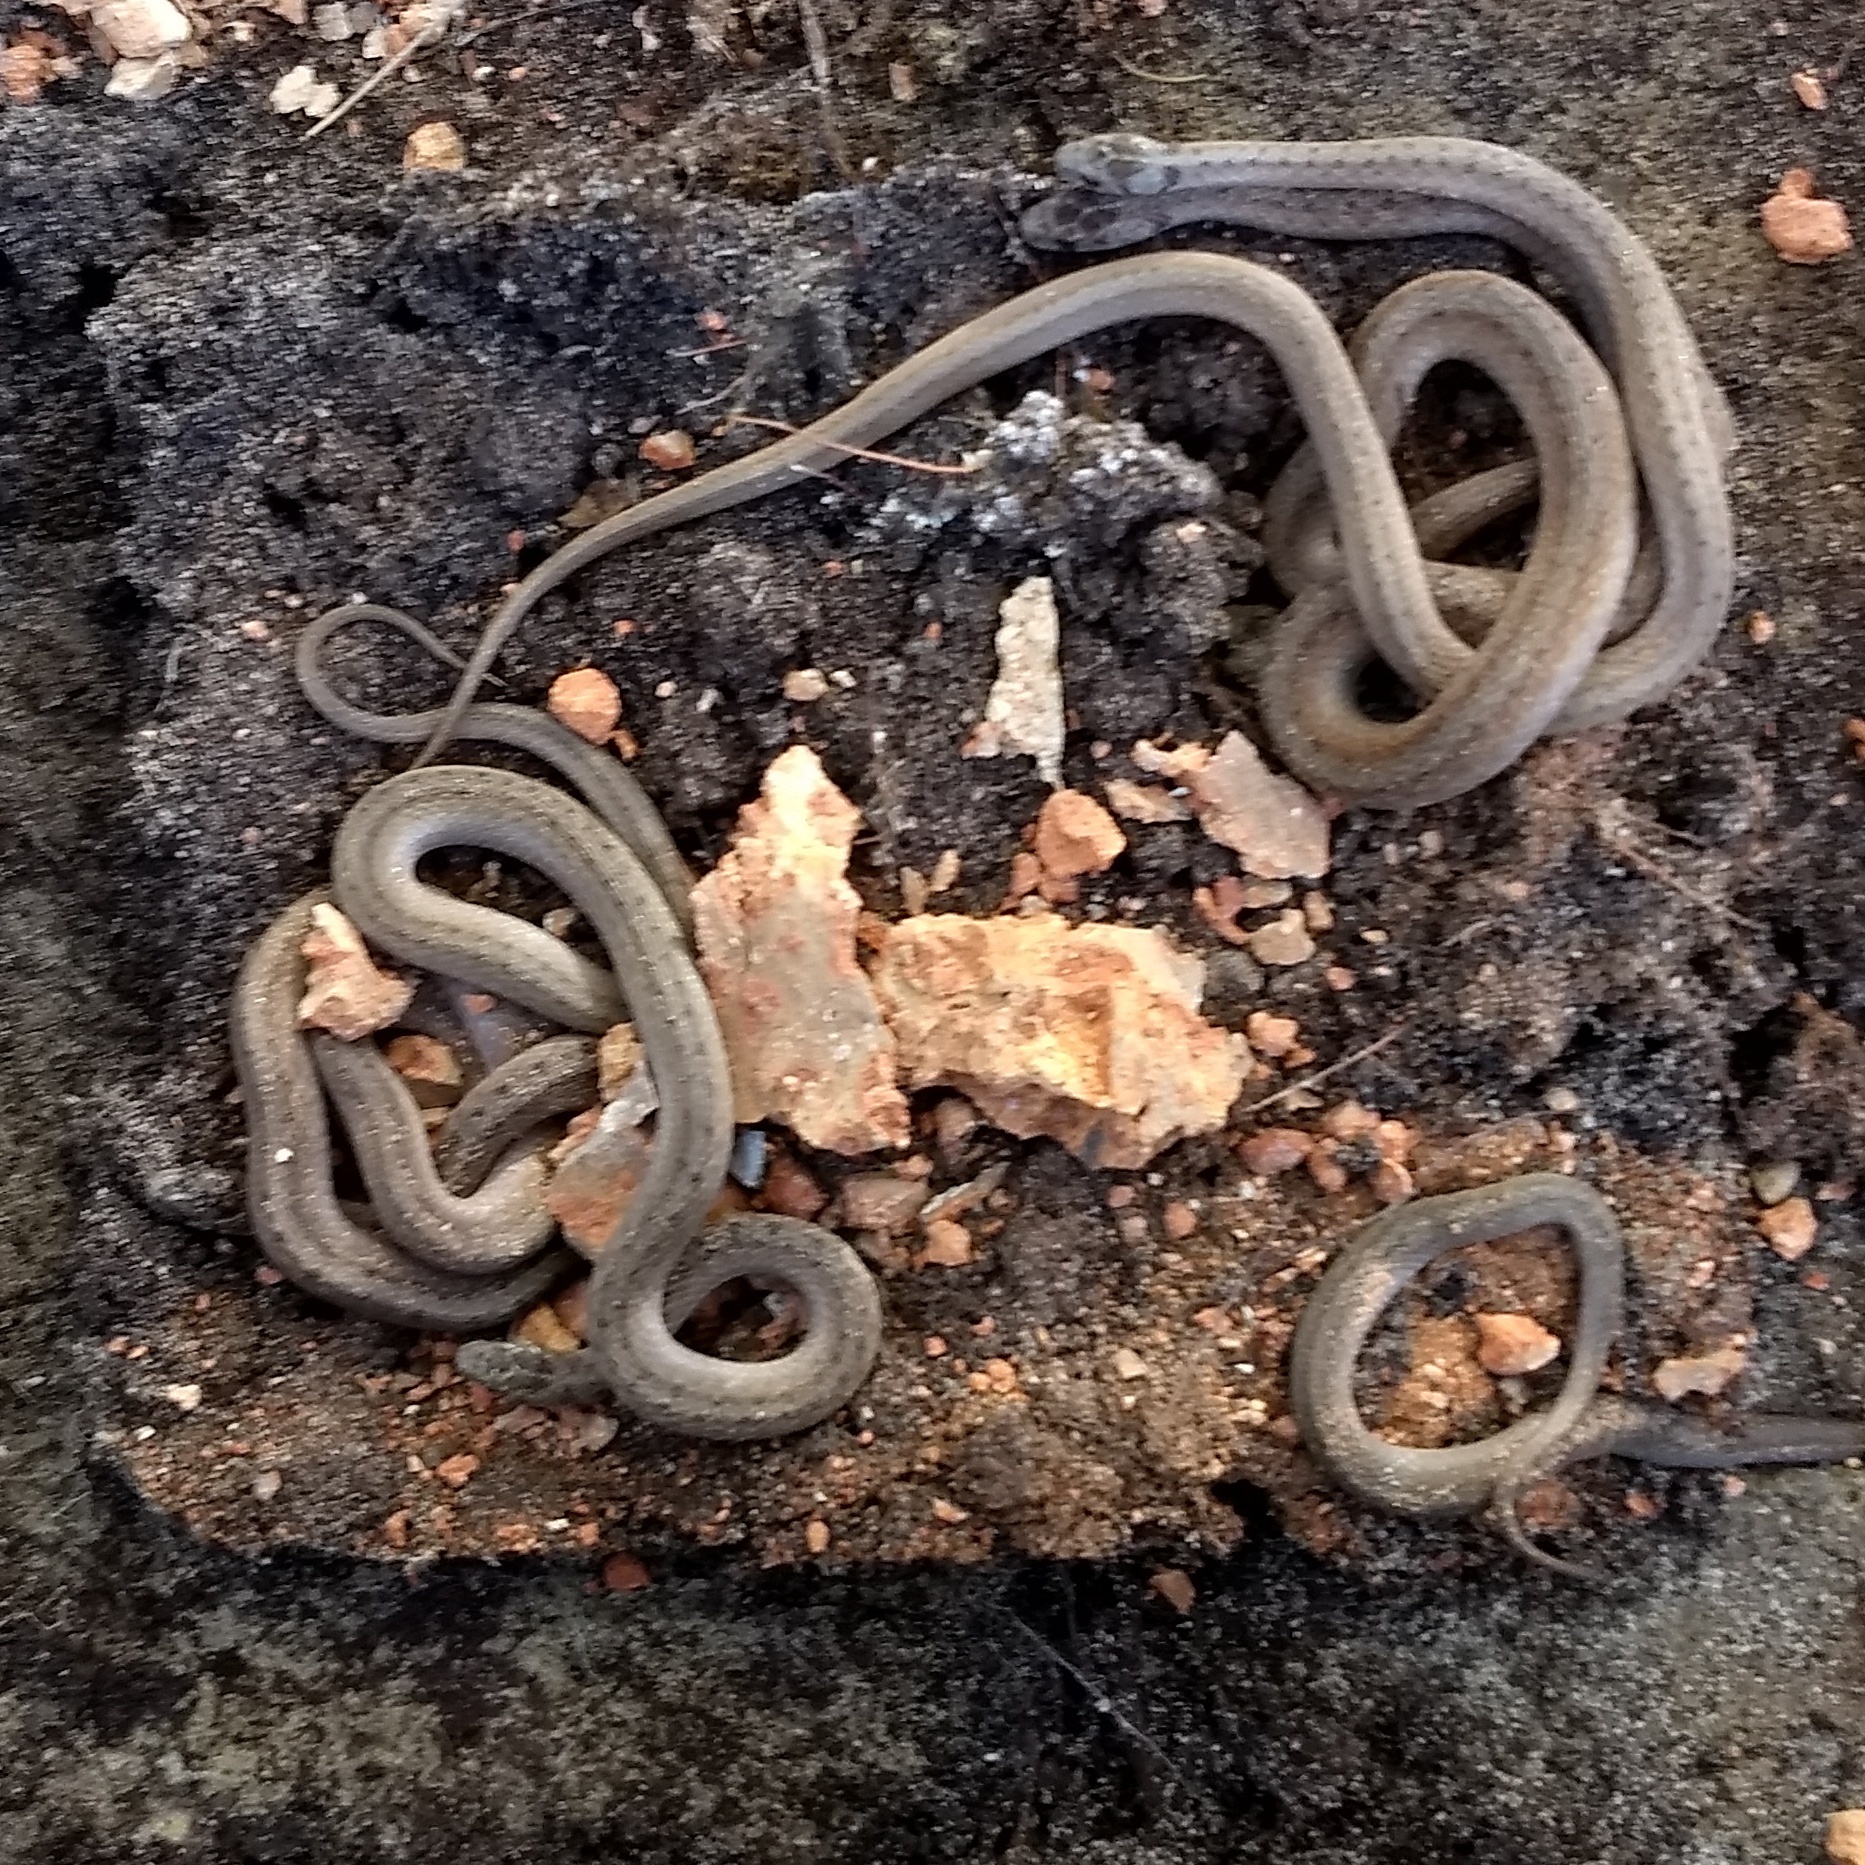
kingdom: Animalia
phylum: Chordata
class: Squamata
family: Colubridae
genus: Storeria
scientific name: Storeria dekayi
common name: (dekay’s) brown snake
